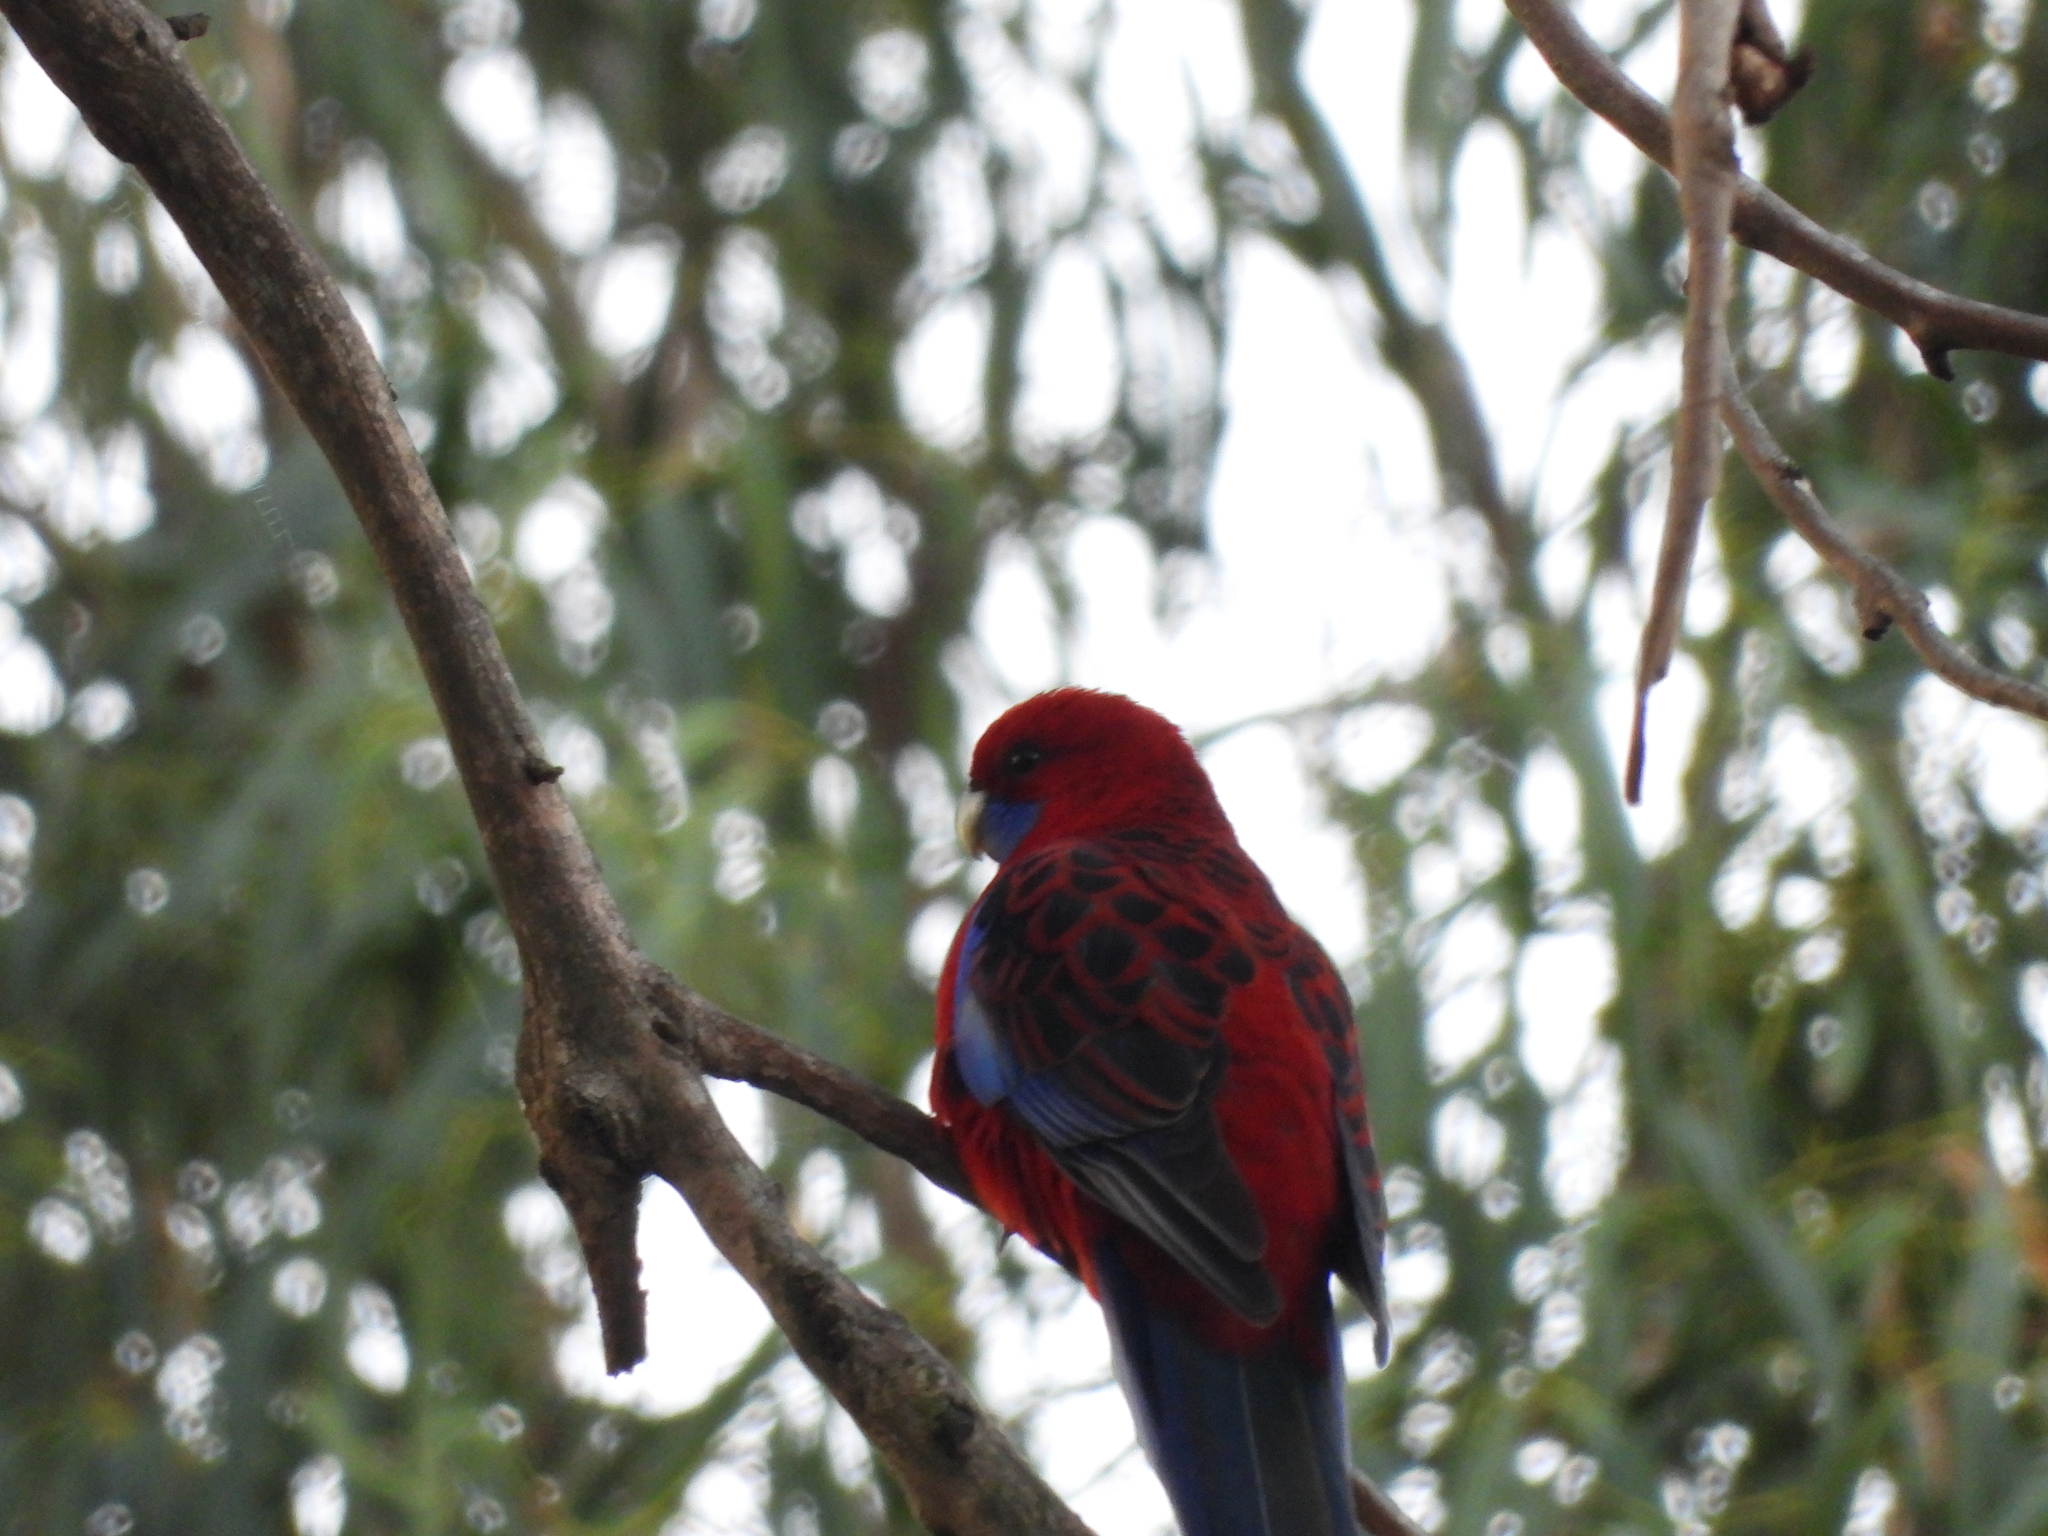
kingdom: Animalia
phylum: Chordata
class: Aves
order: Psittaciformes
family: Psittacidae
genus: Platycercus
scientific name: Platycercus elegans
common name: Crimson rosella
